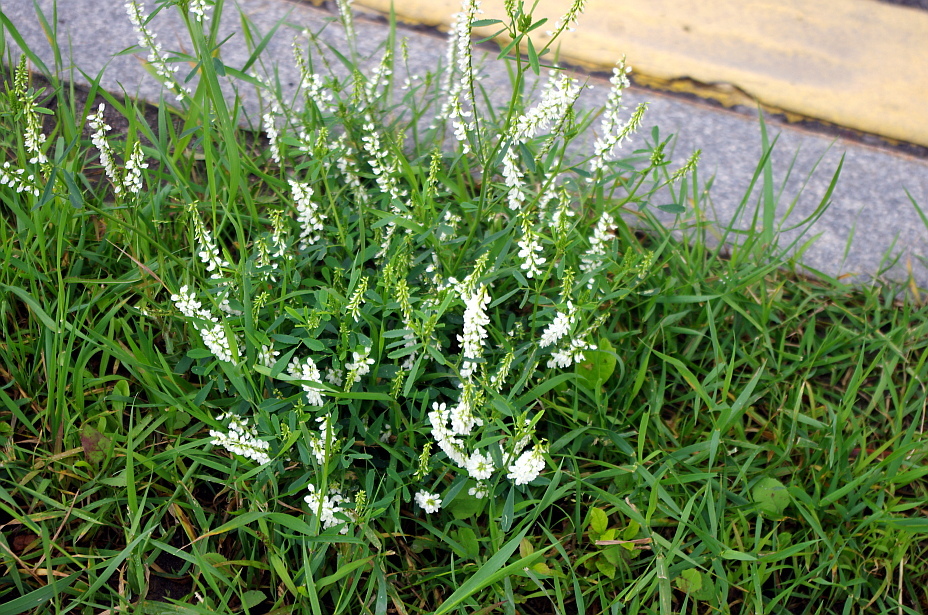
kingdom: Plantae
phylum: Tracheophyta
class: Magnoliopsida
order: Fabales
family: Fabaceae
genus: Melilotus
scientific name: Melilotus albus
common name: White melilot
